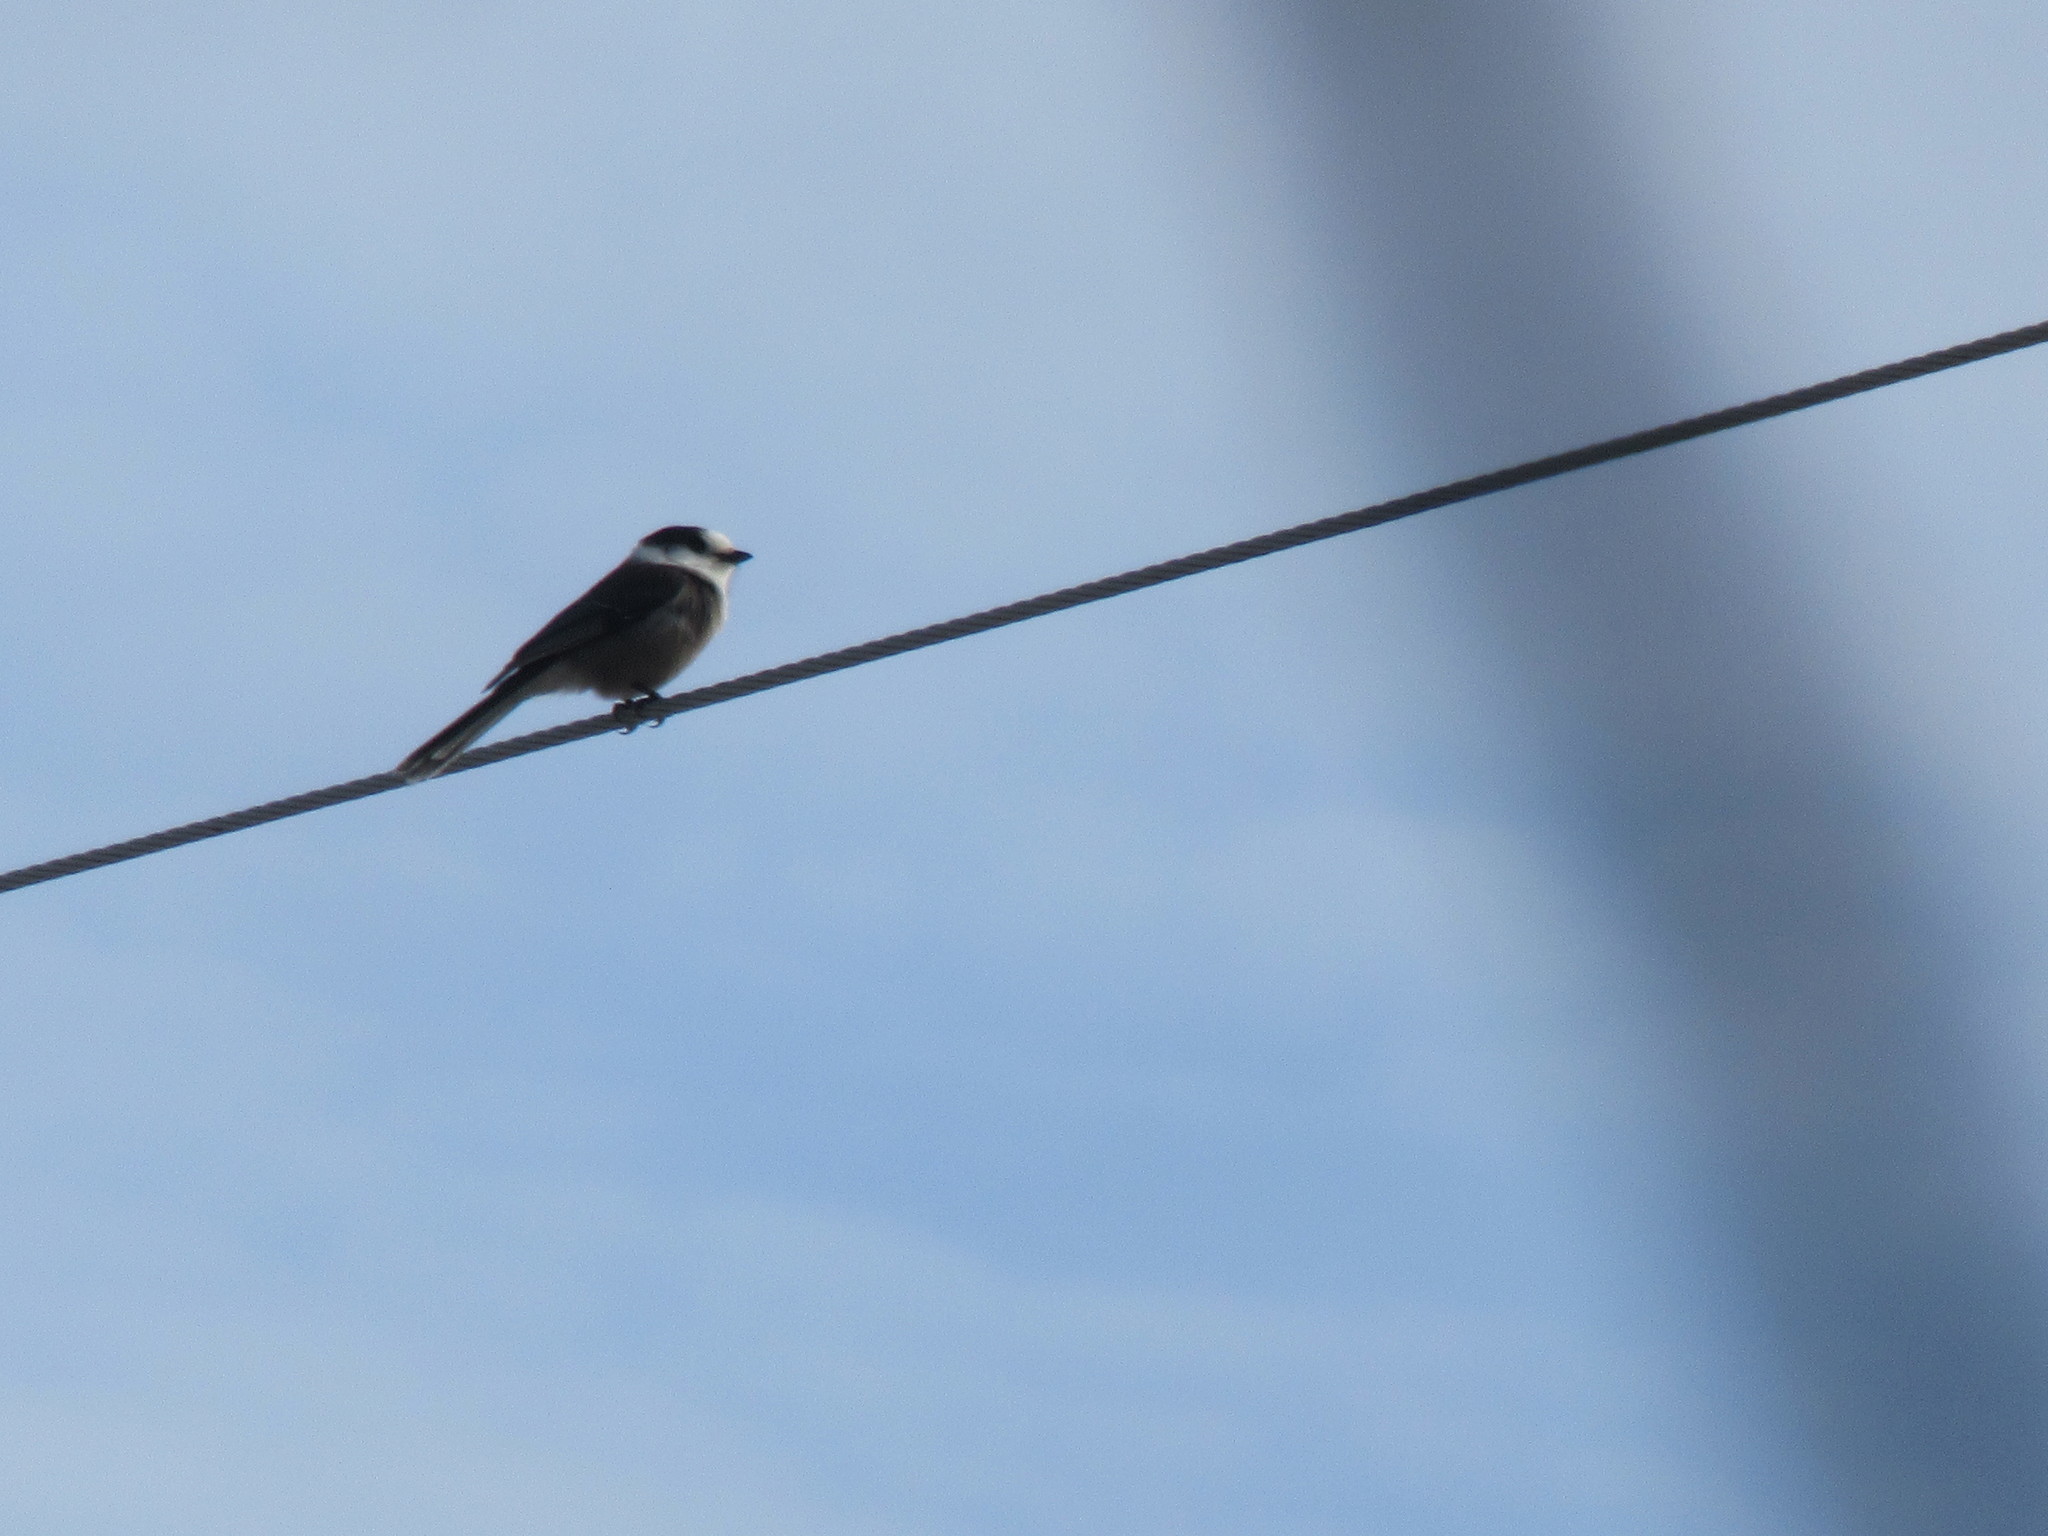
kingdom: Animalia
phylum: Chordata
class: Aves
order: Passeriformes
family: Corvidae
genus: Perisoreus
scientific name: Perisoreus canadensis
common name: Gray jay
